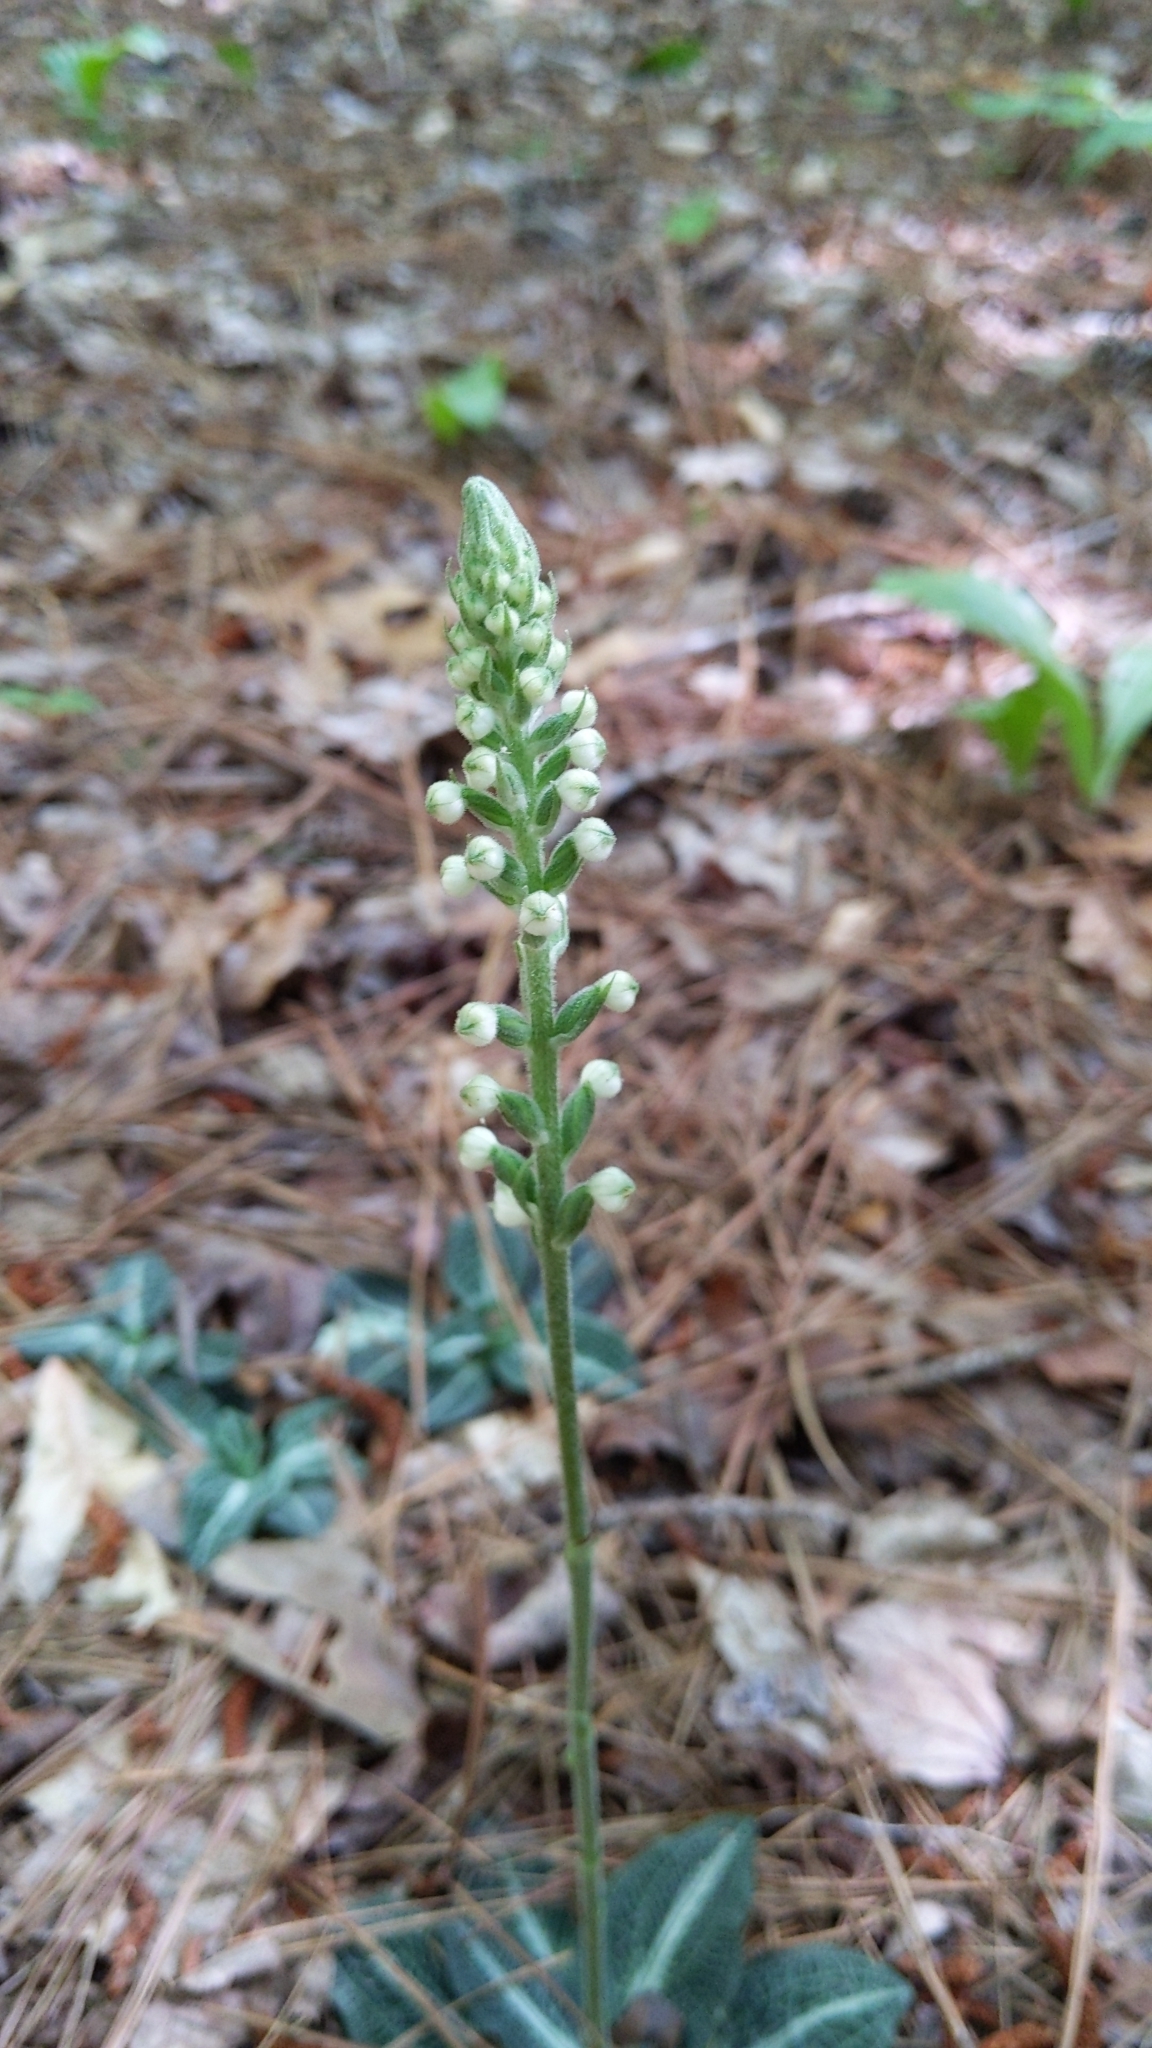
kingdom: Plantae
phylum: Tracheophyta
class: Liliopsida
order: Asparagales
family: Orchidaceae
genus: Goodyera
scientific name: Goodyera pubescens
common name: Downy rattlesnake-plantain
